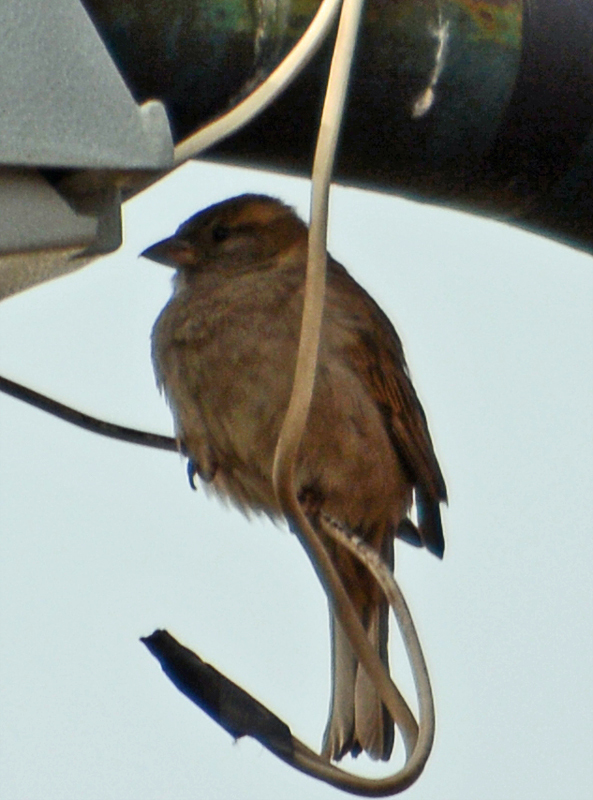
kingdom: Animalia
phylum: Chordata
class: Aves
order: Passeriformes
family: Passeridae
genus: Passer
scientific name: Passer domesticus
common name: House sparrow
